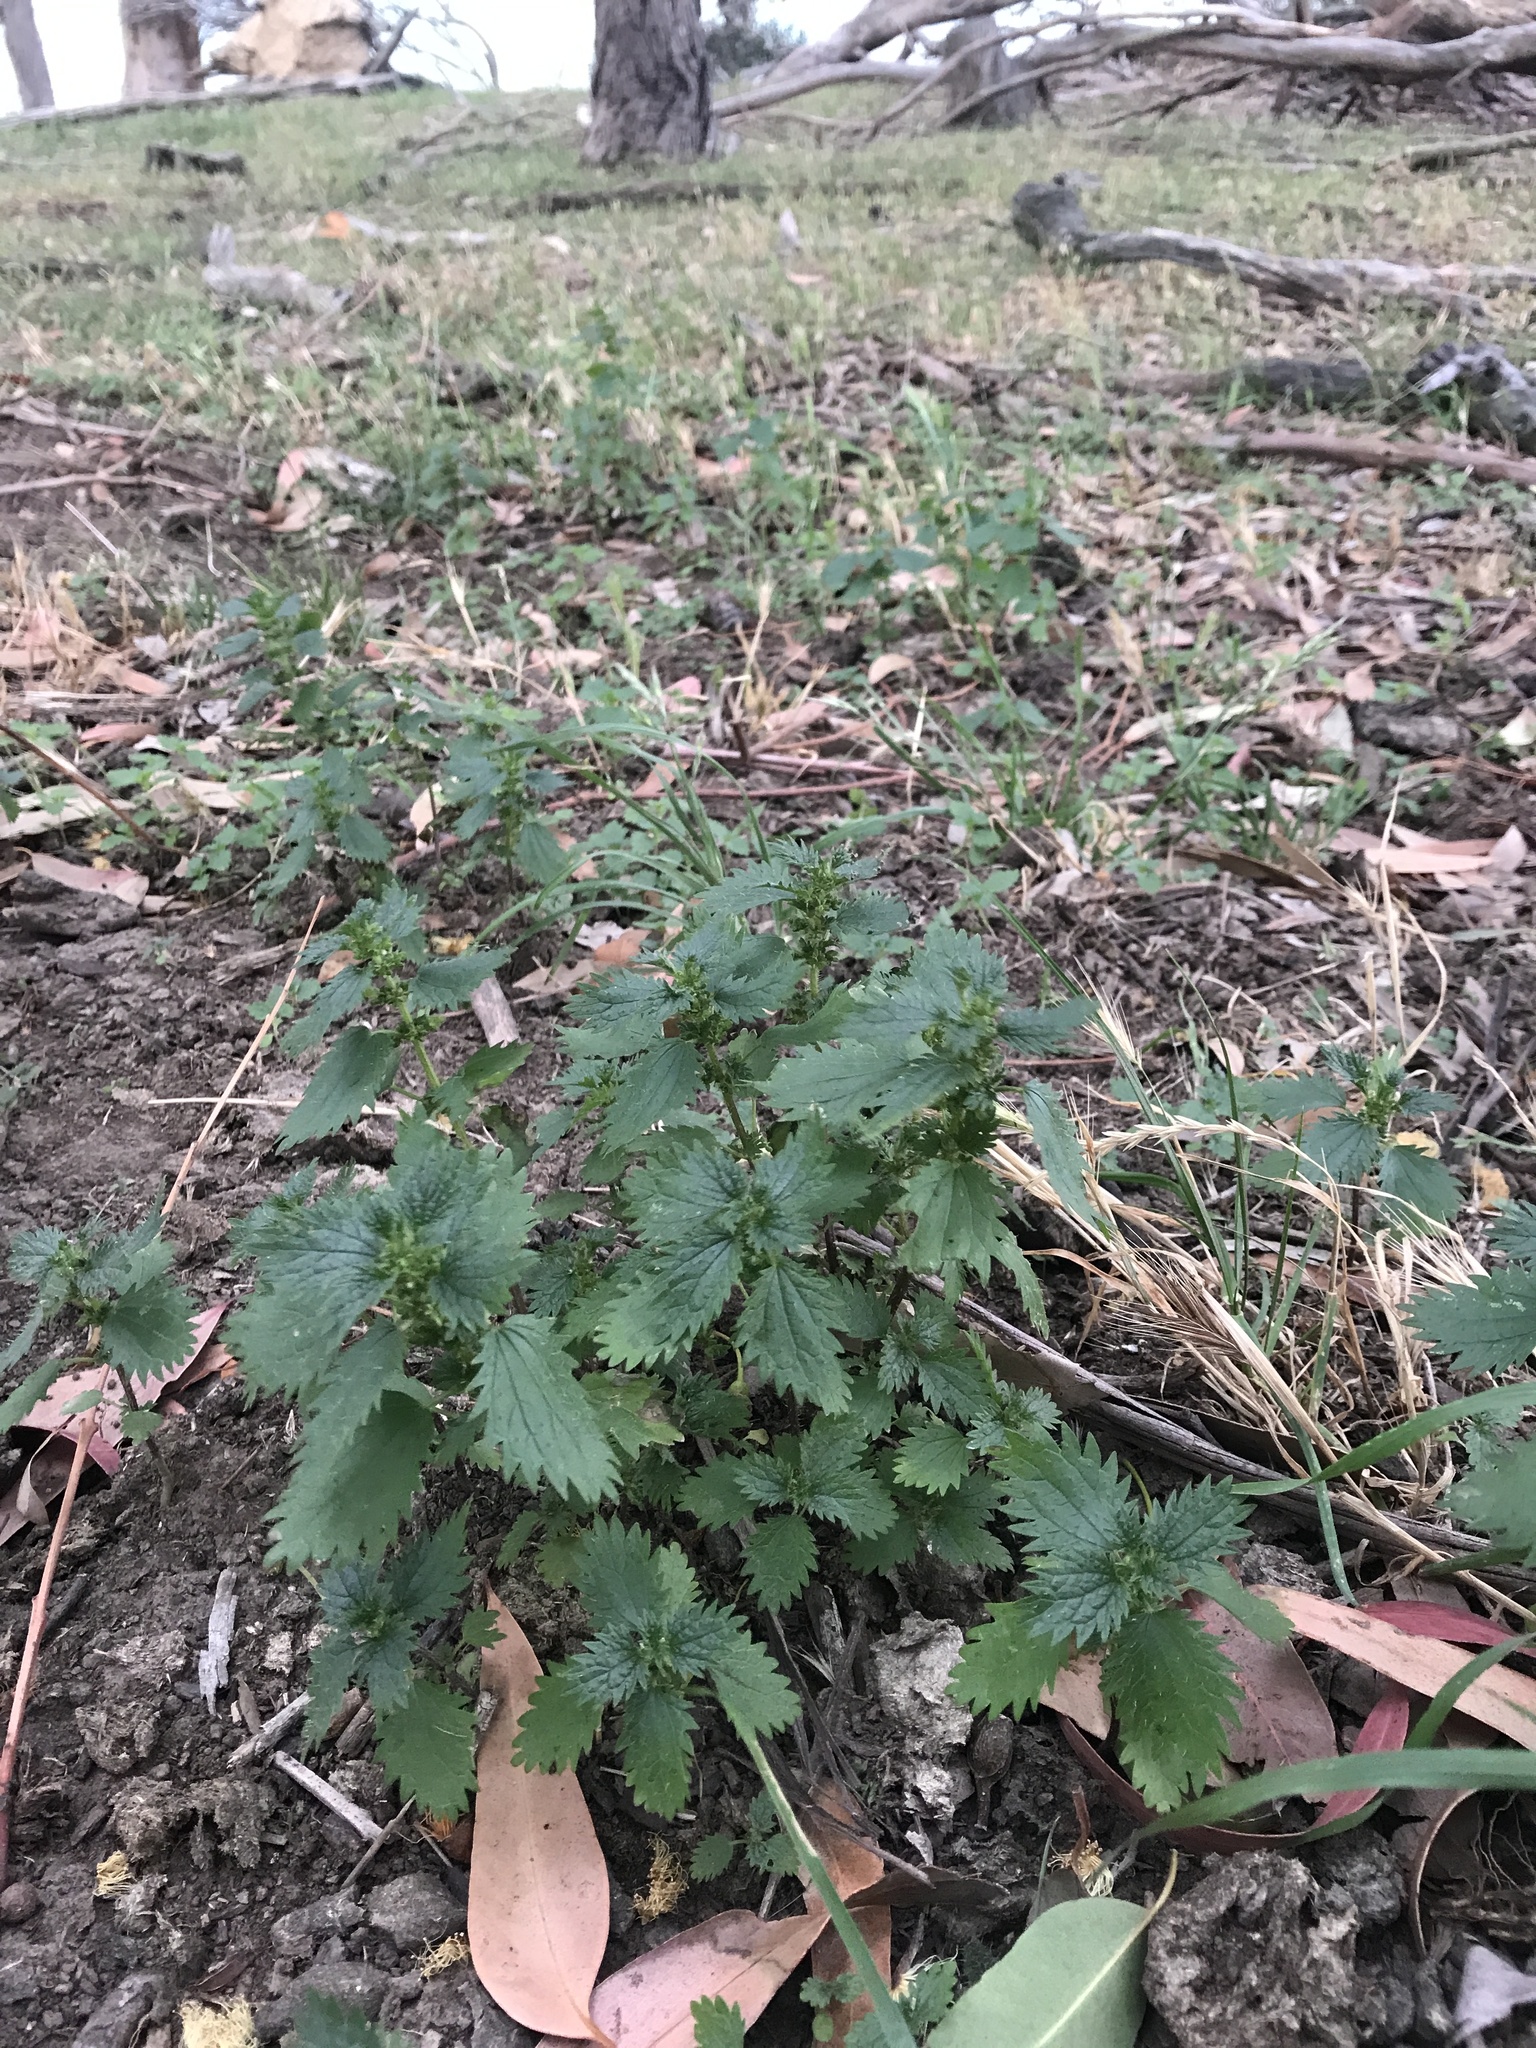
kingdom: Plantae
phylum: Tracheophyta
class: Magnoliopsida
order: Rosales
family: Urticaceae
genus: Urtica
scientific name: Urtica urens
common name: Dwarf nettle
